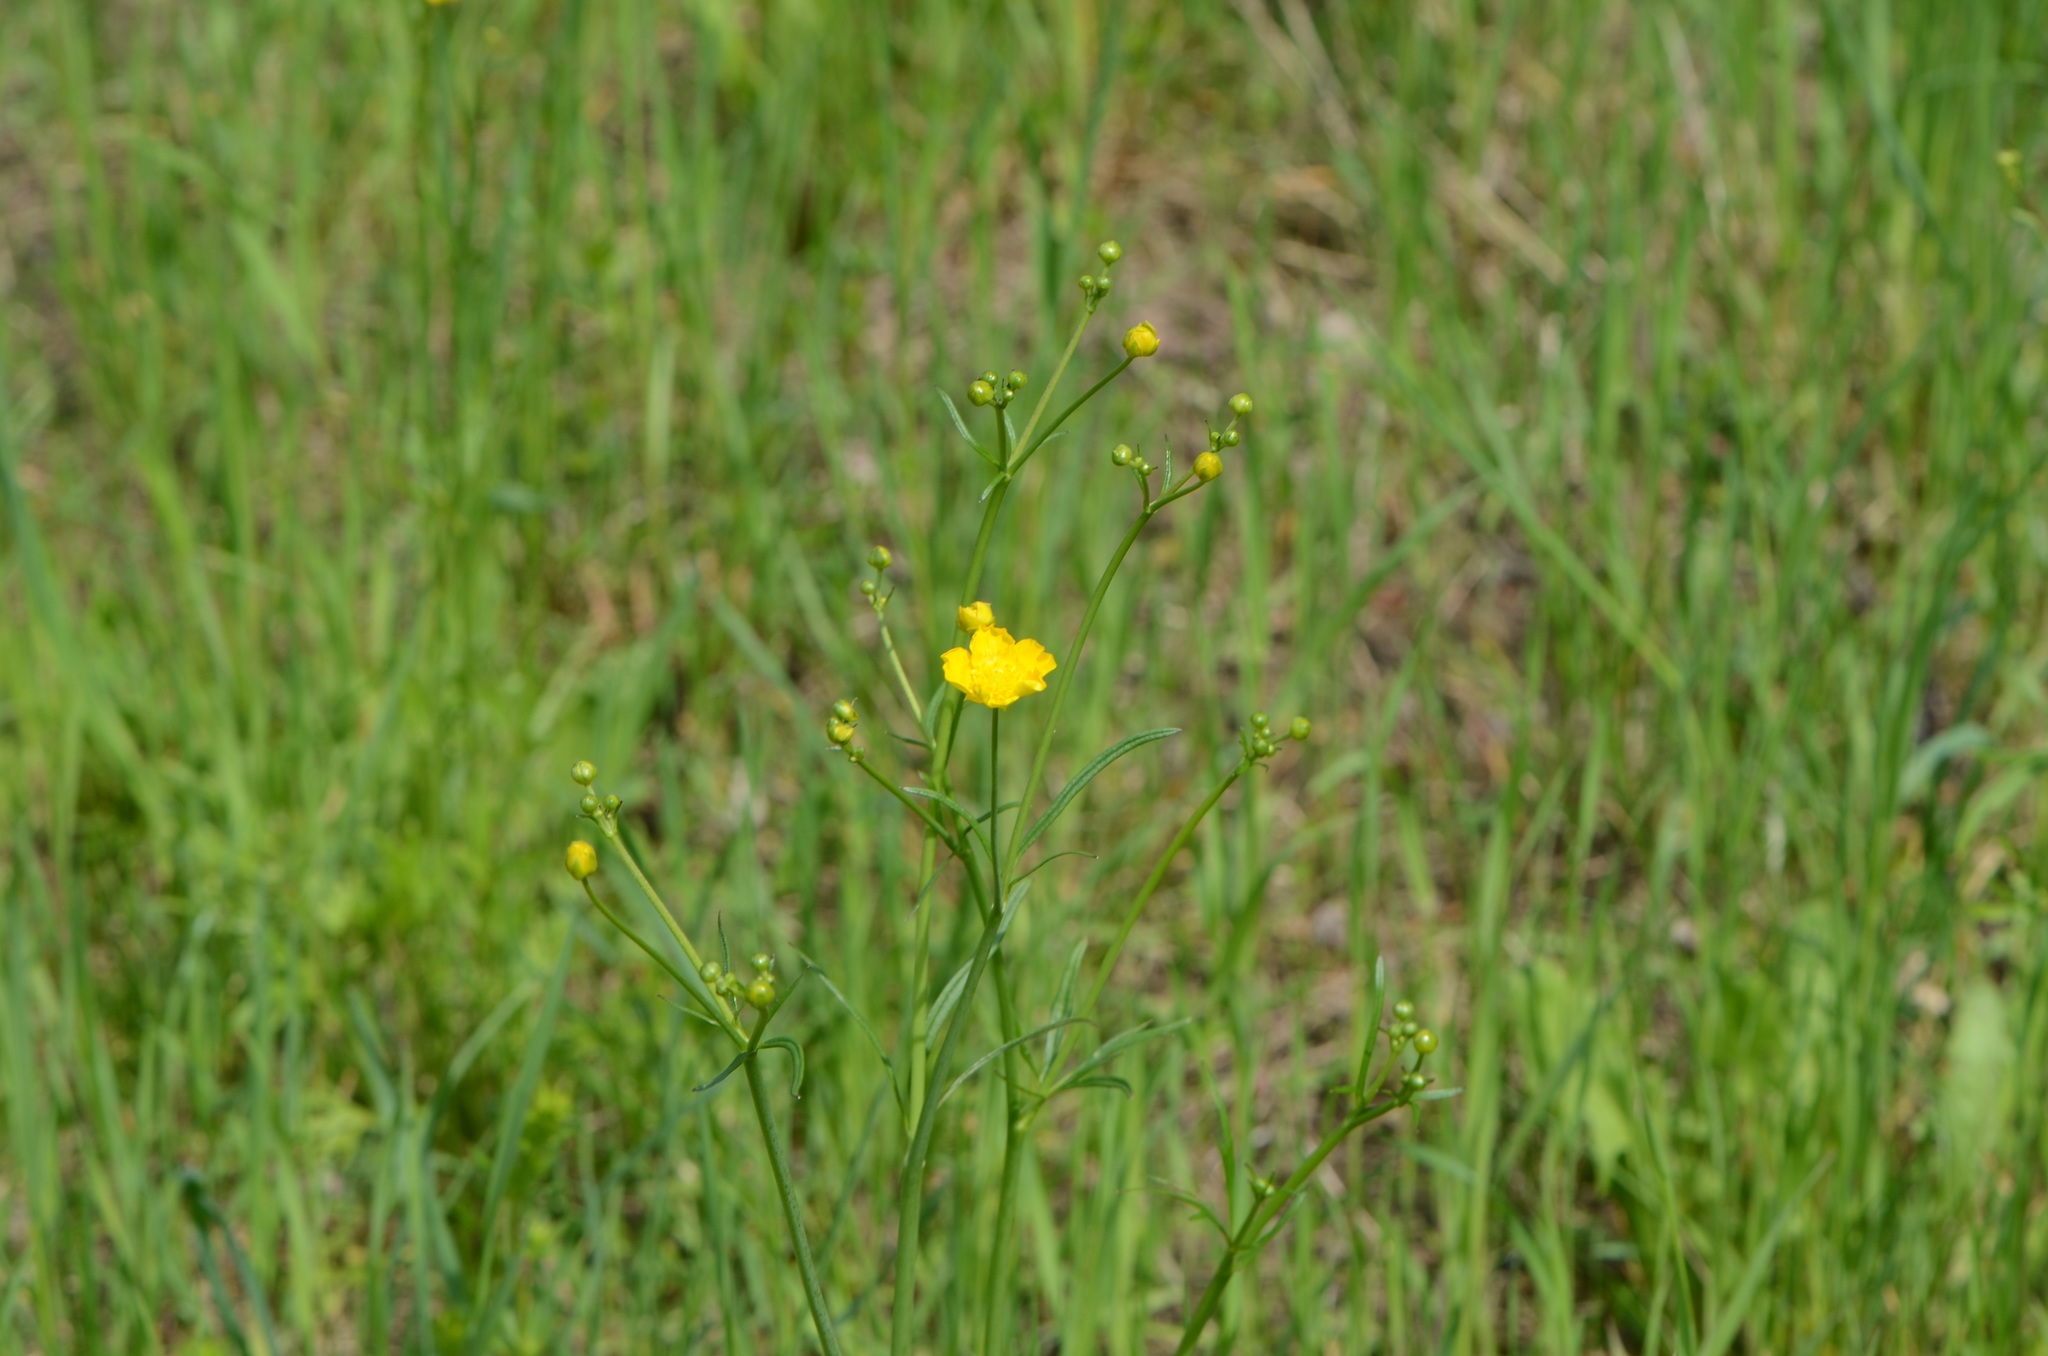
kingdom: Plantae
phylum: Tracheophyta
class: Magnoliopsida
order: Ranunculales
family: Ranunculaceae
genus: Ranunculus
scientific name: Ranunculus acris
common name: Meadow buttercup
